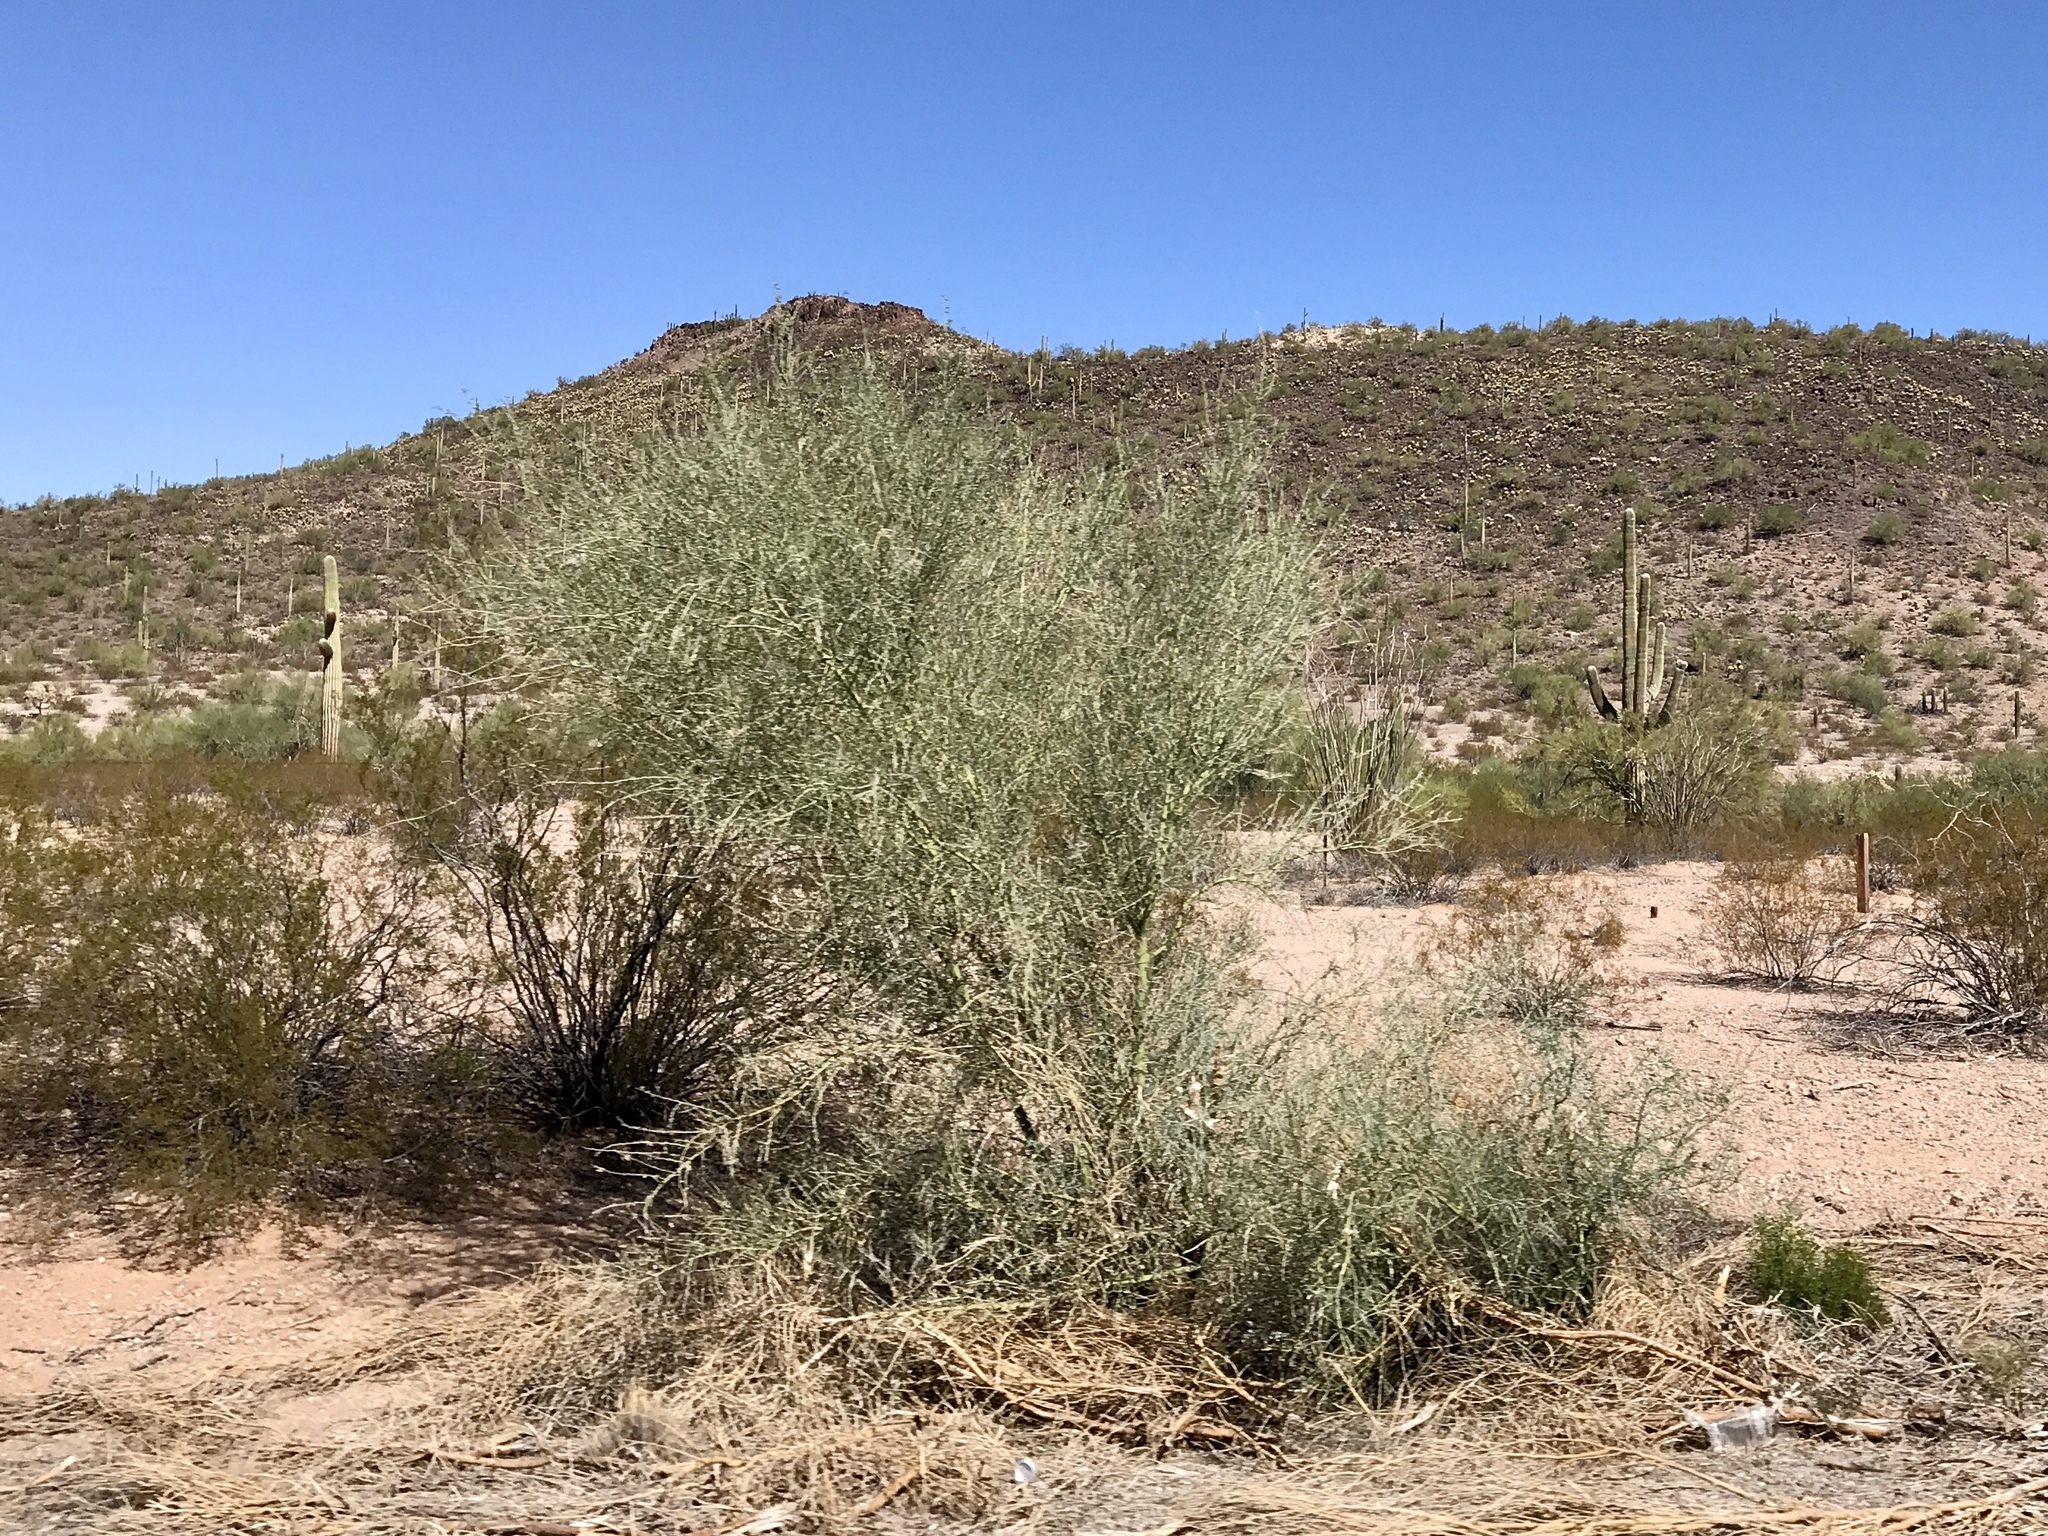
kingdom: Plantae
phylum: Tracheophyta
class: Magnoliopsida
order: Fabales
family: Fabaceae
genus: Parkinsonia
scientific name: Parkinsonia florida
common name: Blue paloverde
